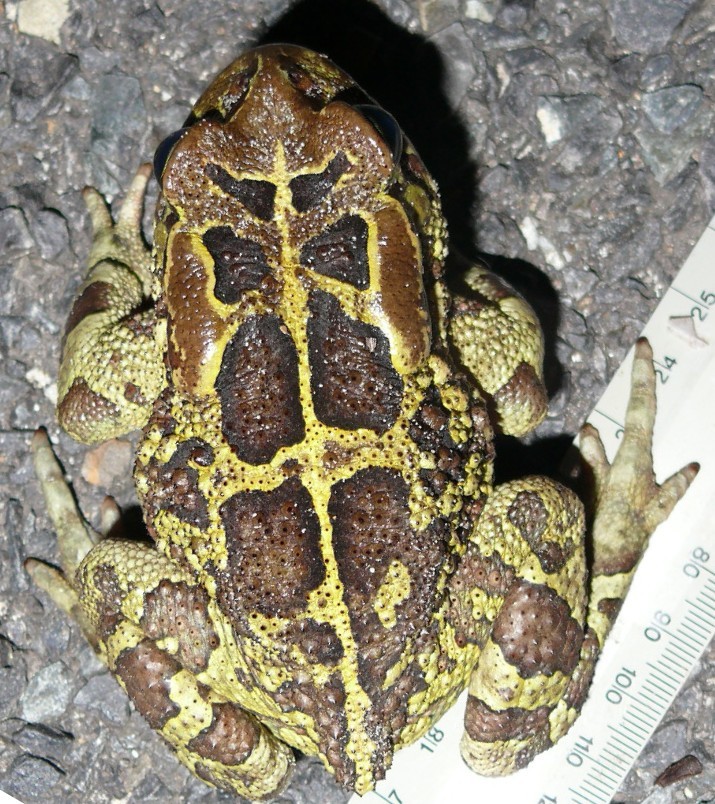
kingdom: Animalia
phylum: Chordata
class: Amphibia
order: Anura
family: Bufonidae
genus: Sclerophrys
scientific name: Sclerophrys pantherina
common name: Panther toad
